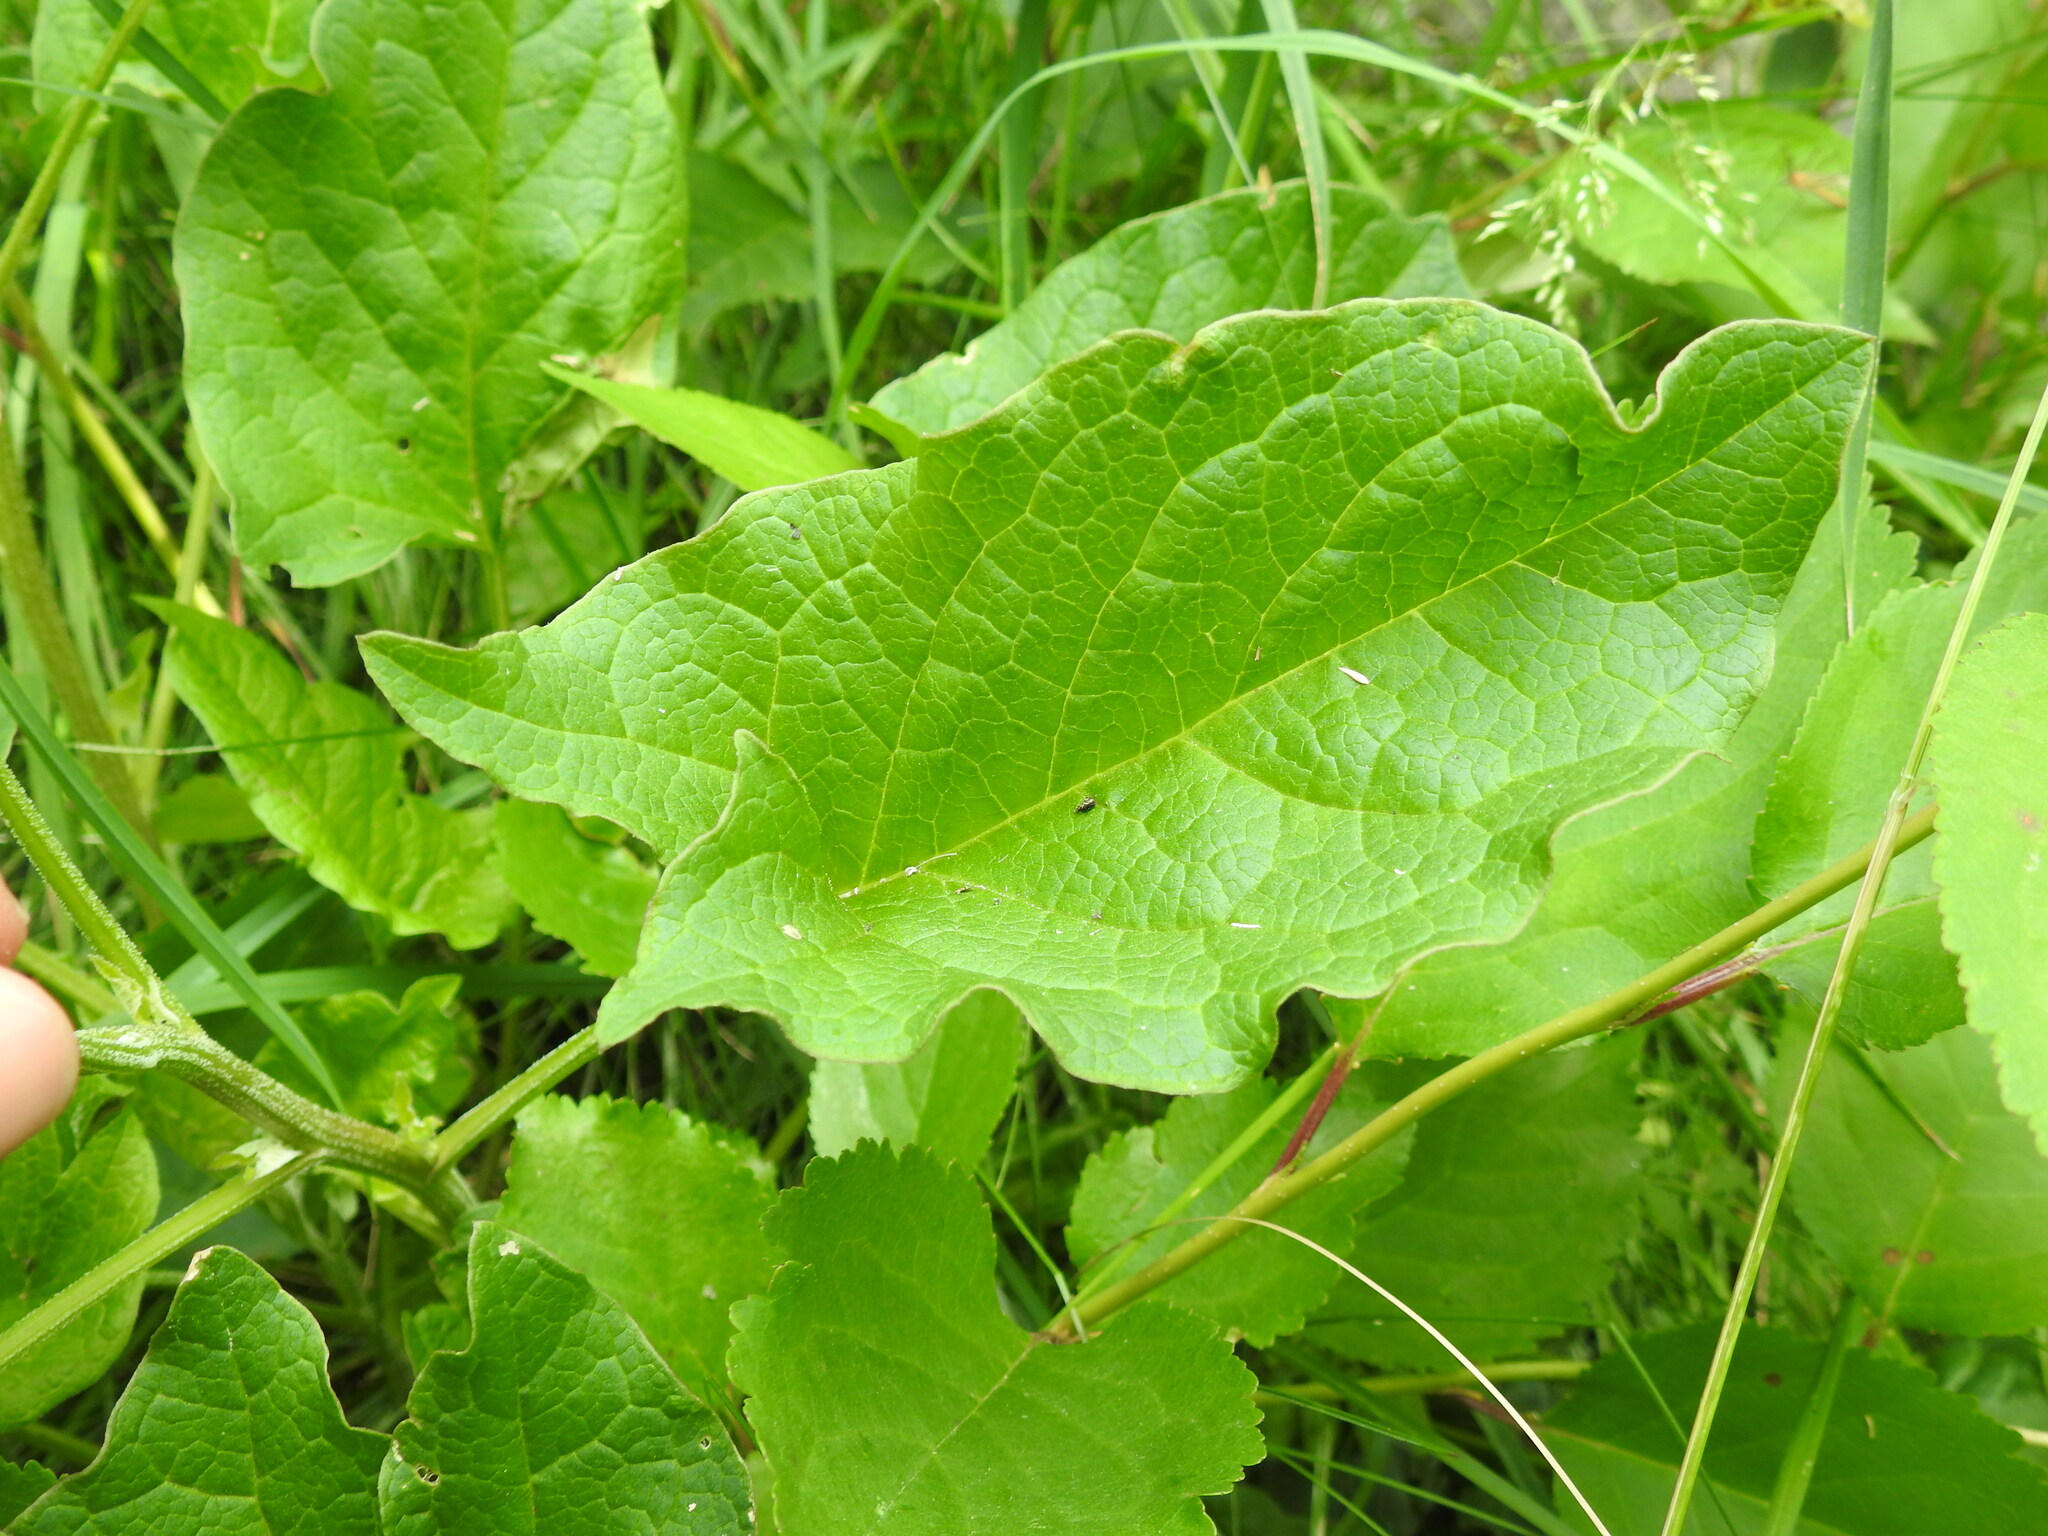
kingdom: Plantae
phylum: Tracheophyta
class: Magnoliopsida
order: Caryophyllales
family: Amaranthaceae
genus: Blitum
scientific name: Blitum bonus-henricus
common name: Good king henry
